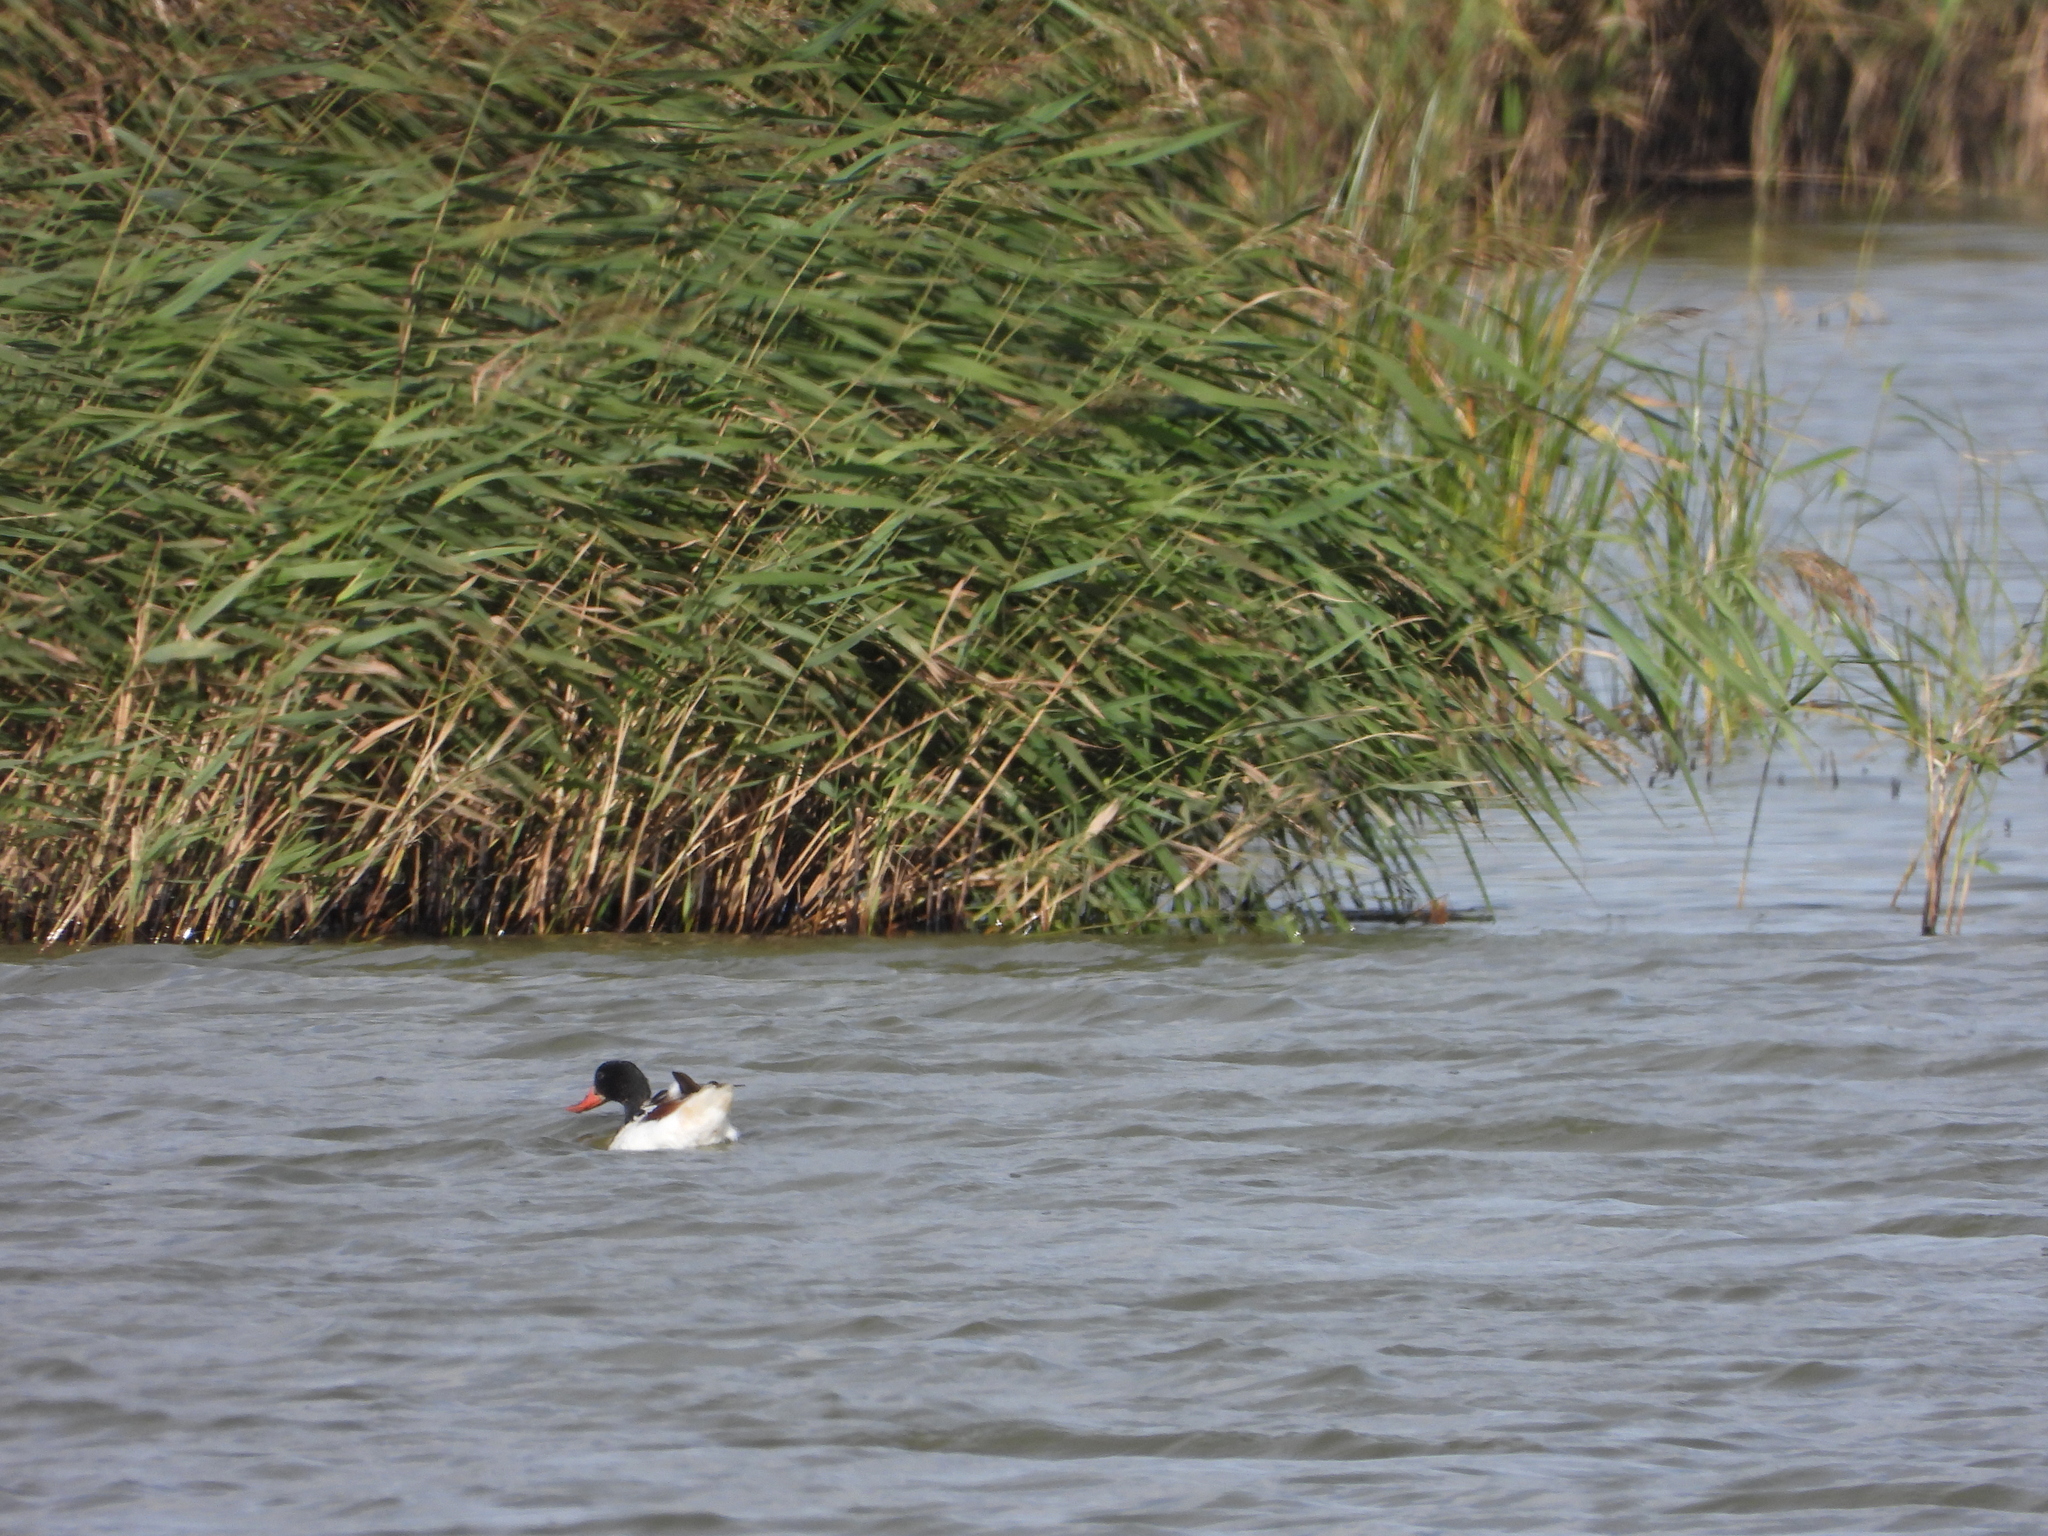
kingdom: Animalia
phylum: Chordata
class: Aves
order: Anseriformes
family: Anatidae
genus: Tadorna
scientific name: Tadorna tadorna
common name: Common shelduck
